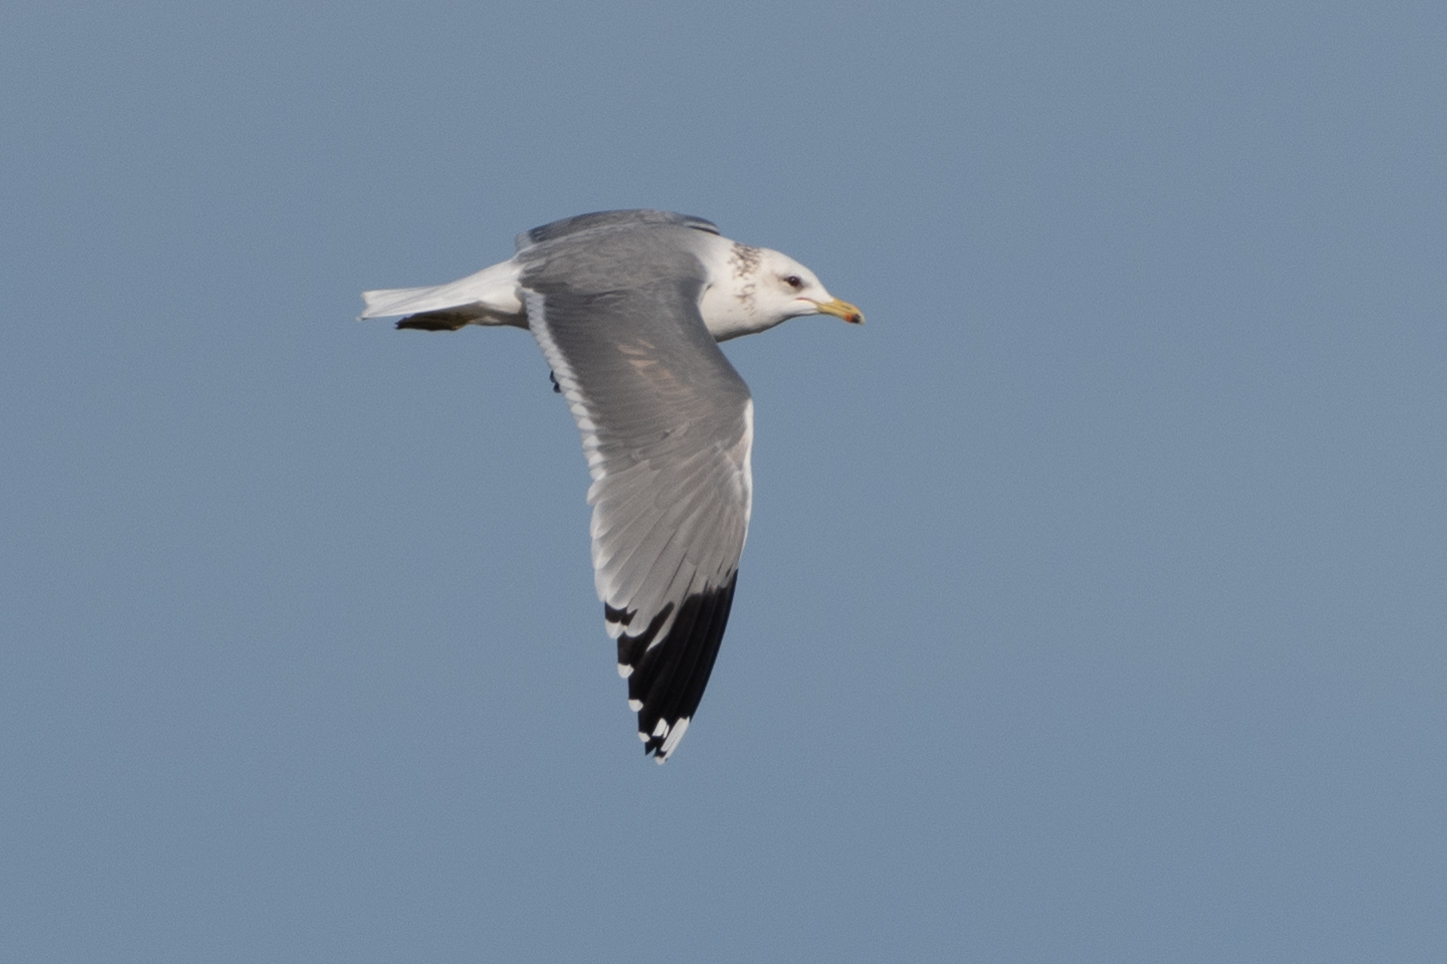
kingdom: Animalia
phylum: Chordata
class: Aves
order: Charadriiformes
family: Laridae
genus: Larus
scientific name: Larus californicus
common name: California gull
